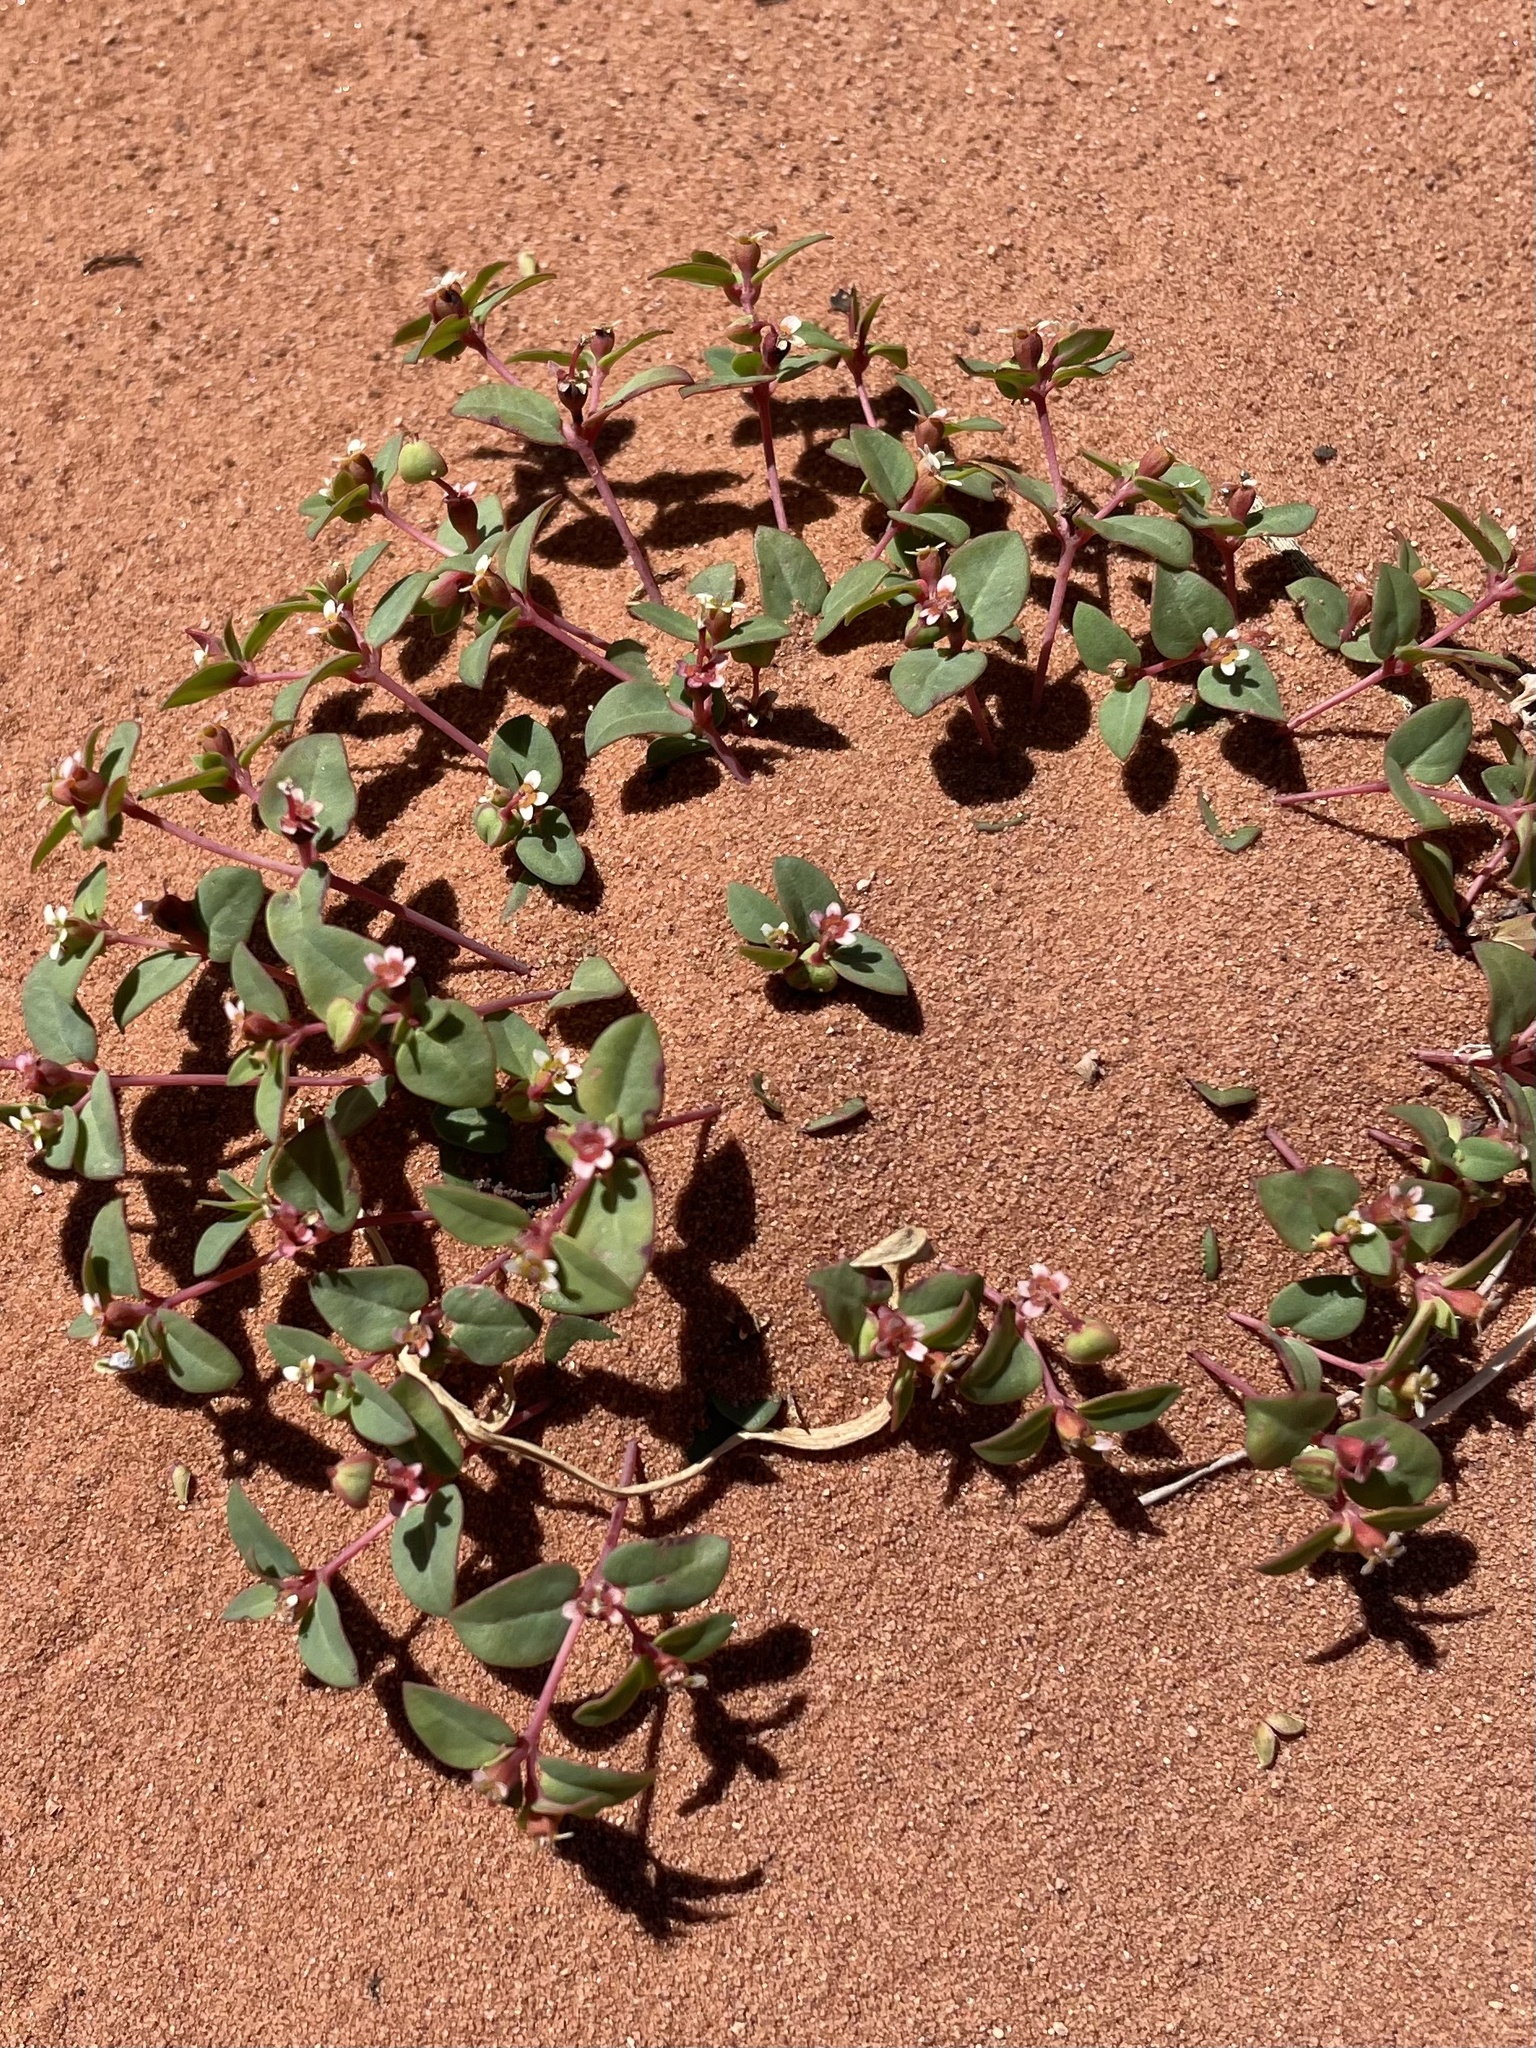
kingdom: Plantae
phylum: Tracheophyta
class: Magnoliopsida
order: Malpighiales
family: Euphorbiaceae
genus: Euphorbia
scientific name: Euphorbia fendleri
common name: Fendler's euphorbia
